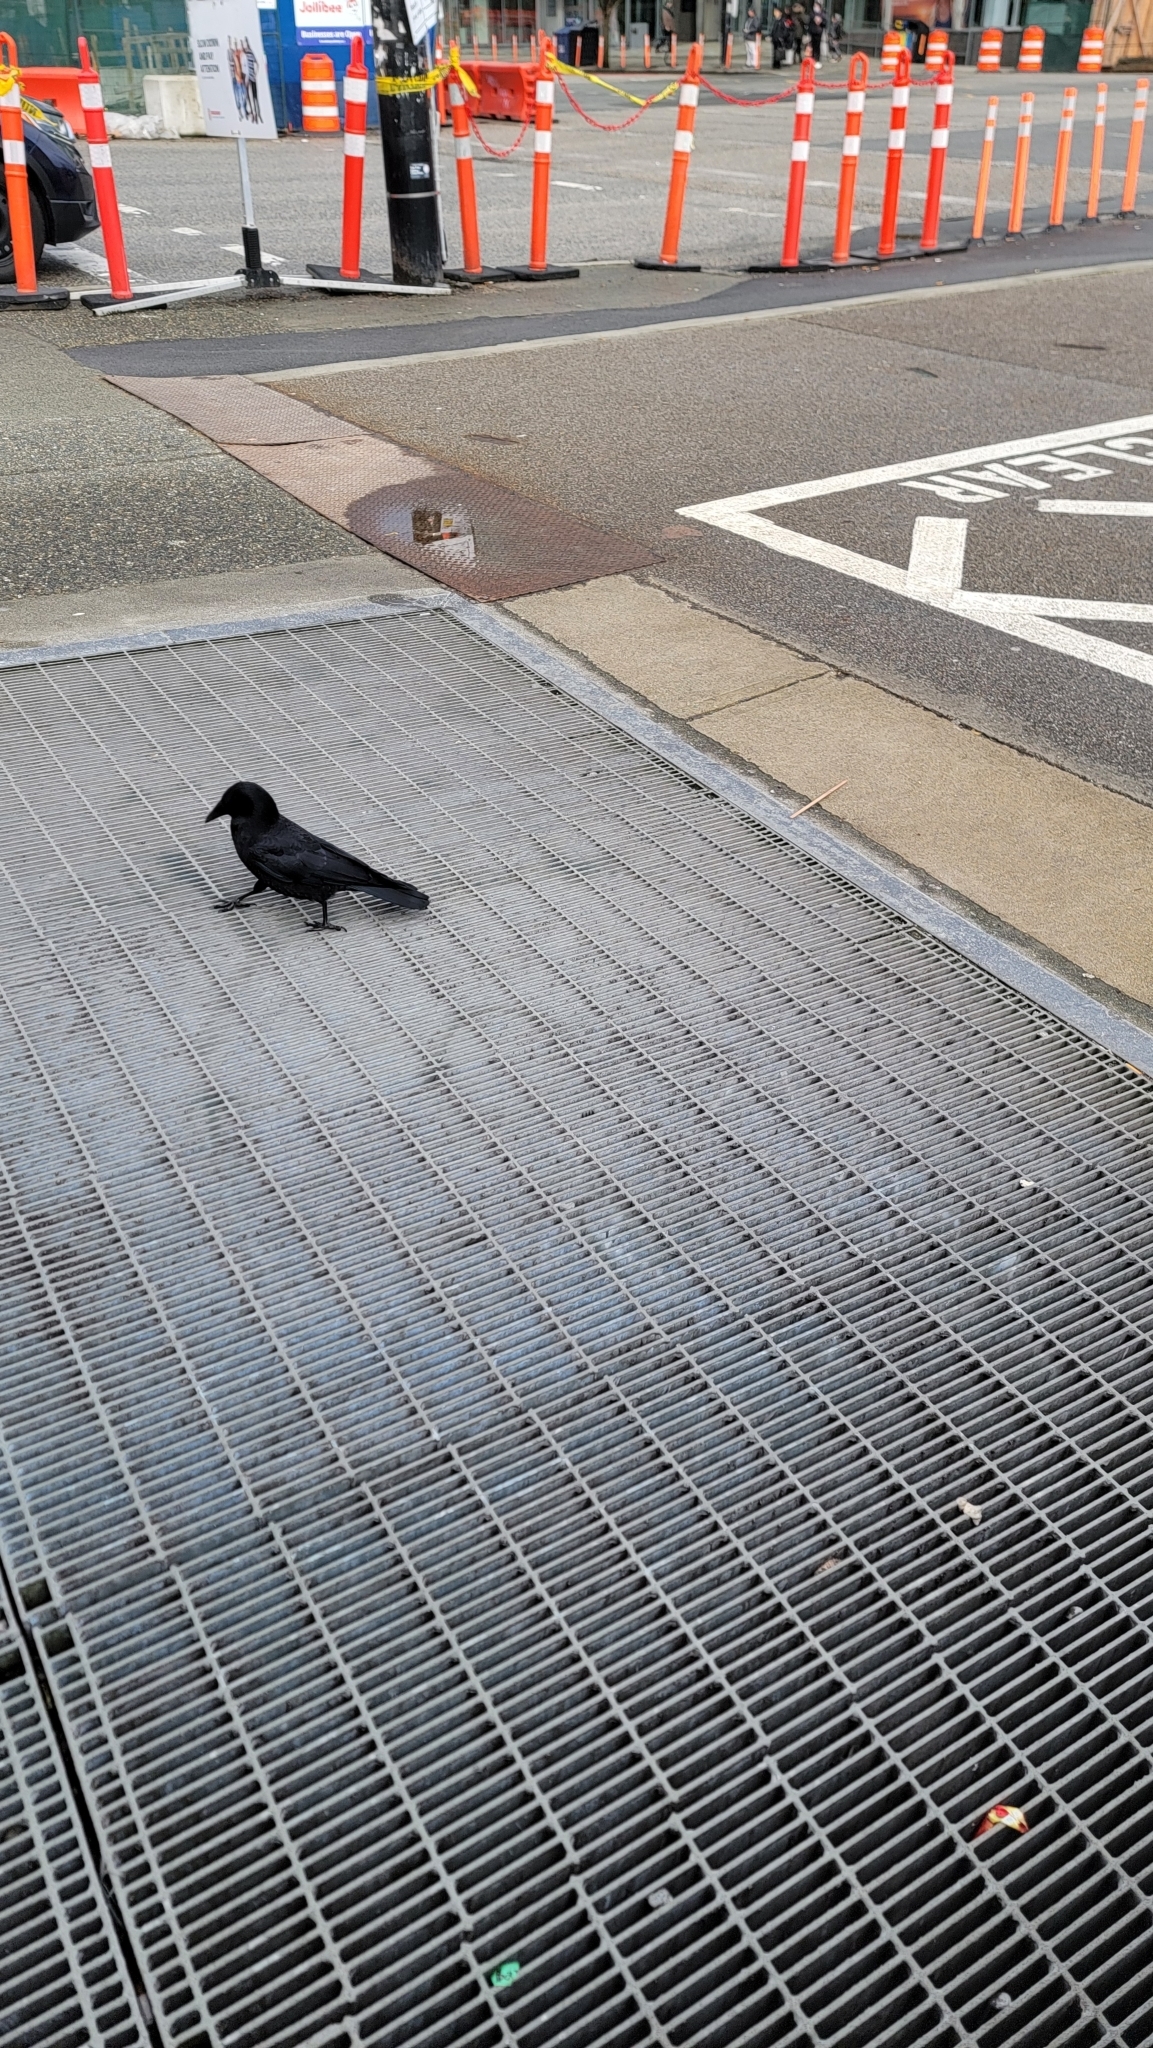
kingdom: Animalia
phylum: Chordata
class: Aves
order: Passeriformes
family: Corvidae
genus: Corvus
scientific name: Corvus brachyrhynchos
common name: American crow
